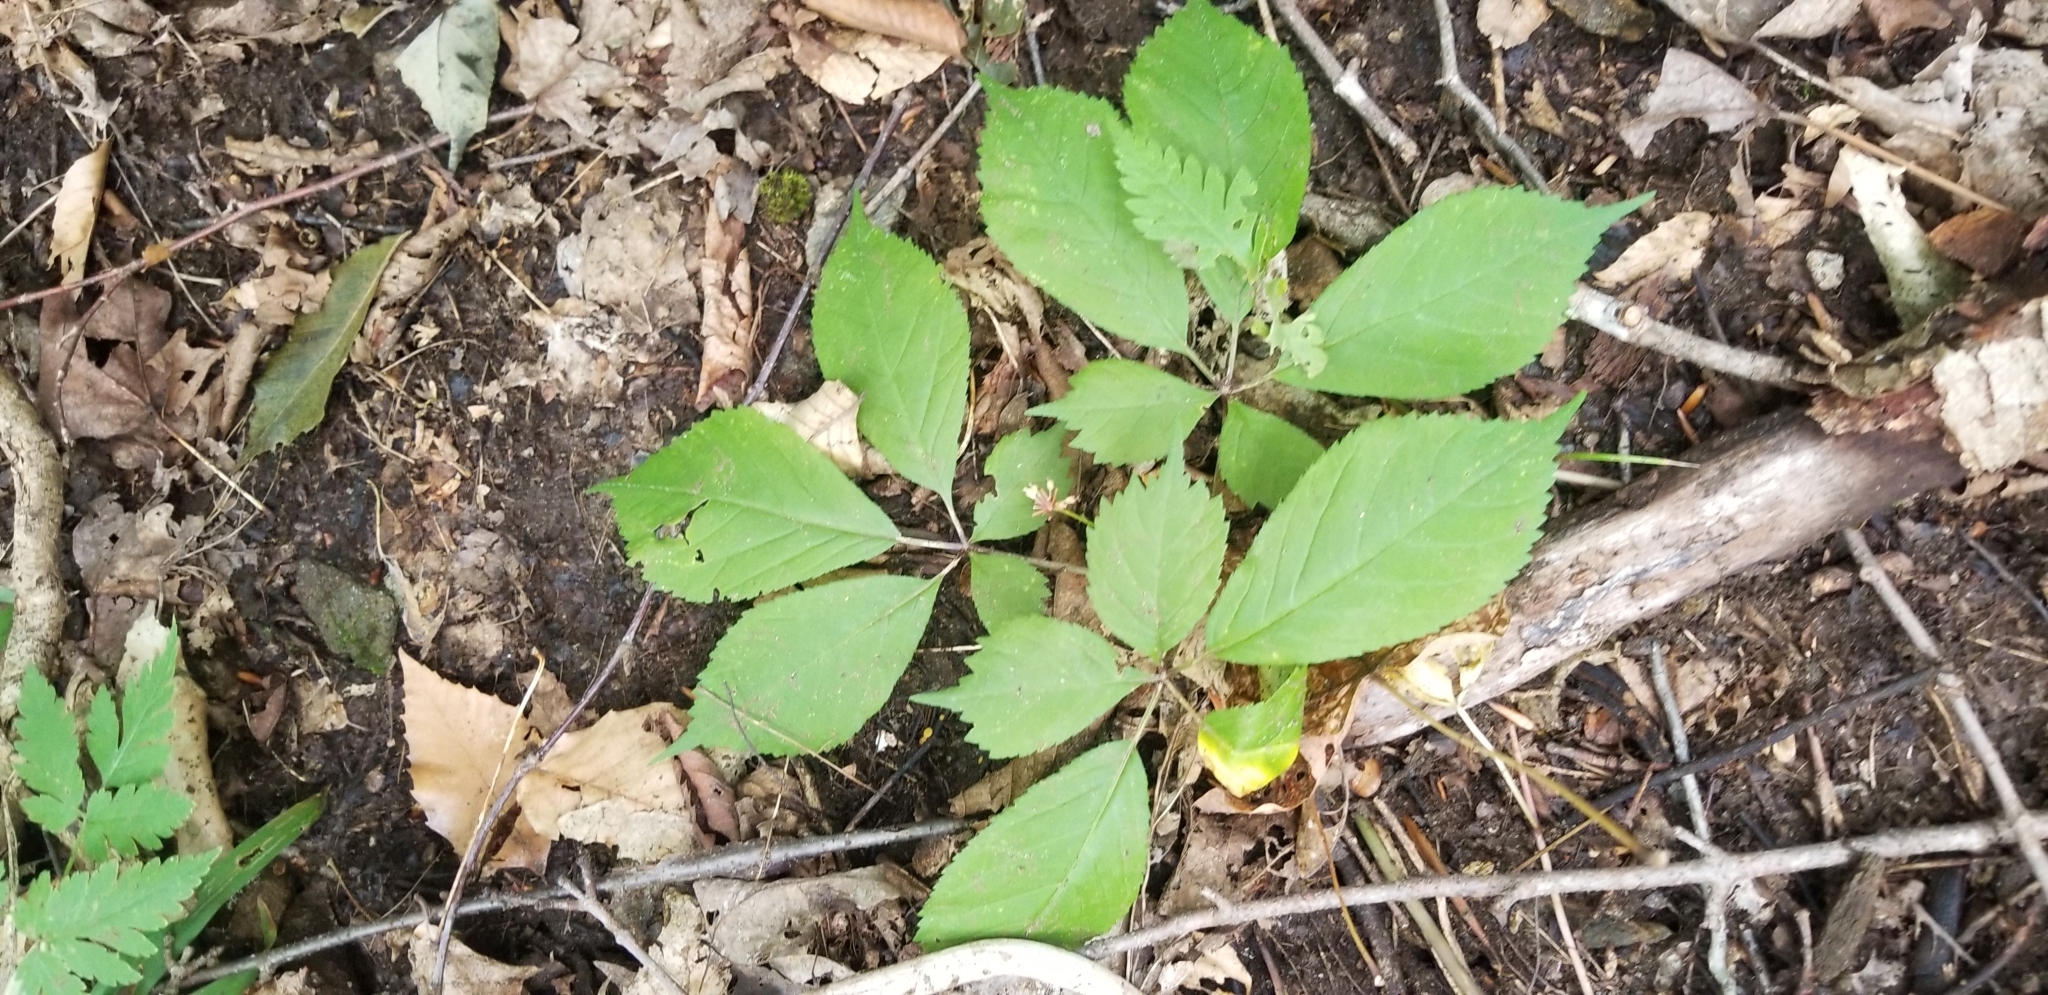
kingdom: Plantae
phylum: Tracheophyta
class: Magnoliopsida
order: Apiales
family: Araliaceae
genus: Panax
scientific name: Panax quinquefolius
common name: American ginseng
